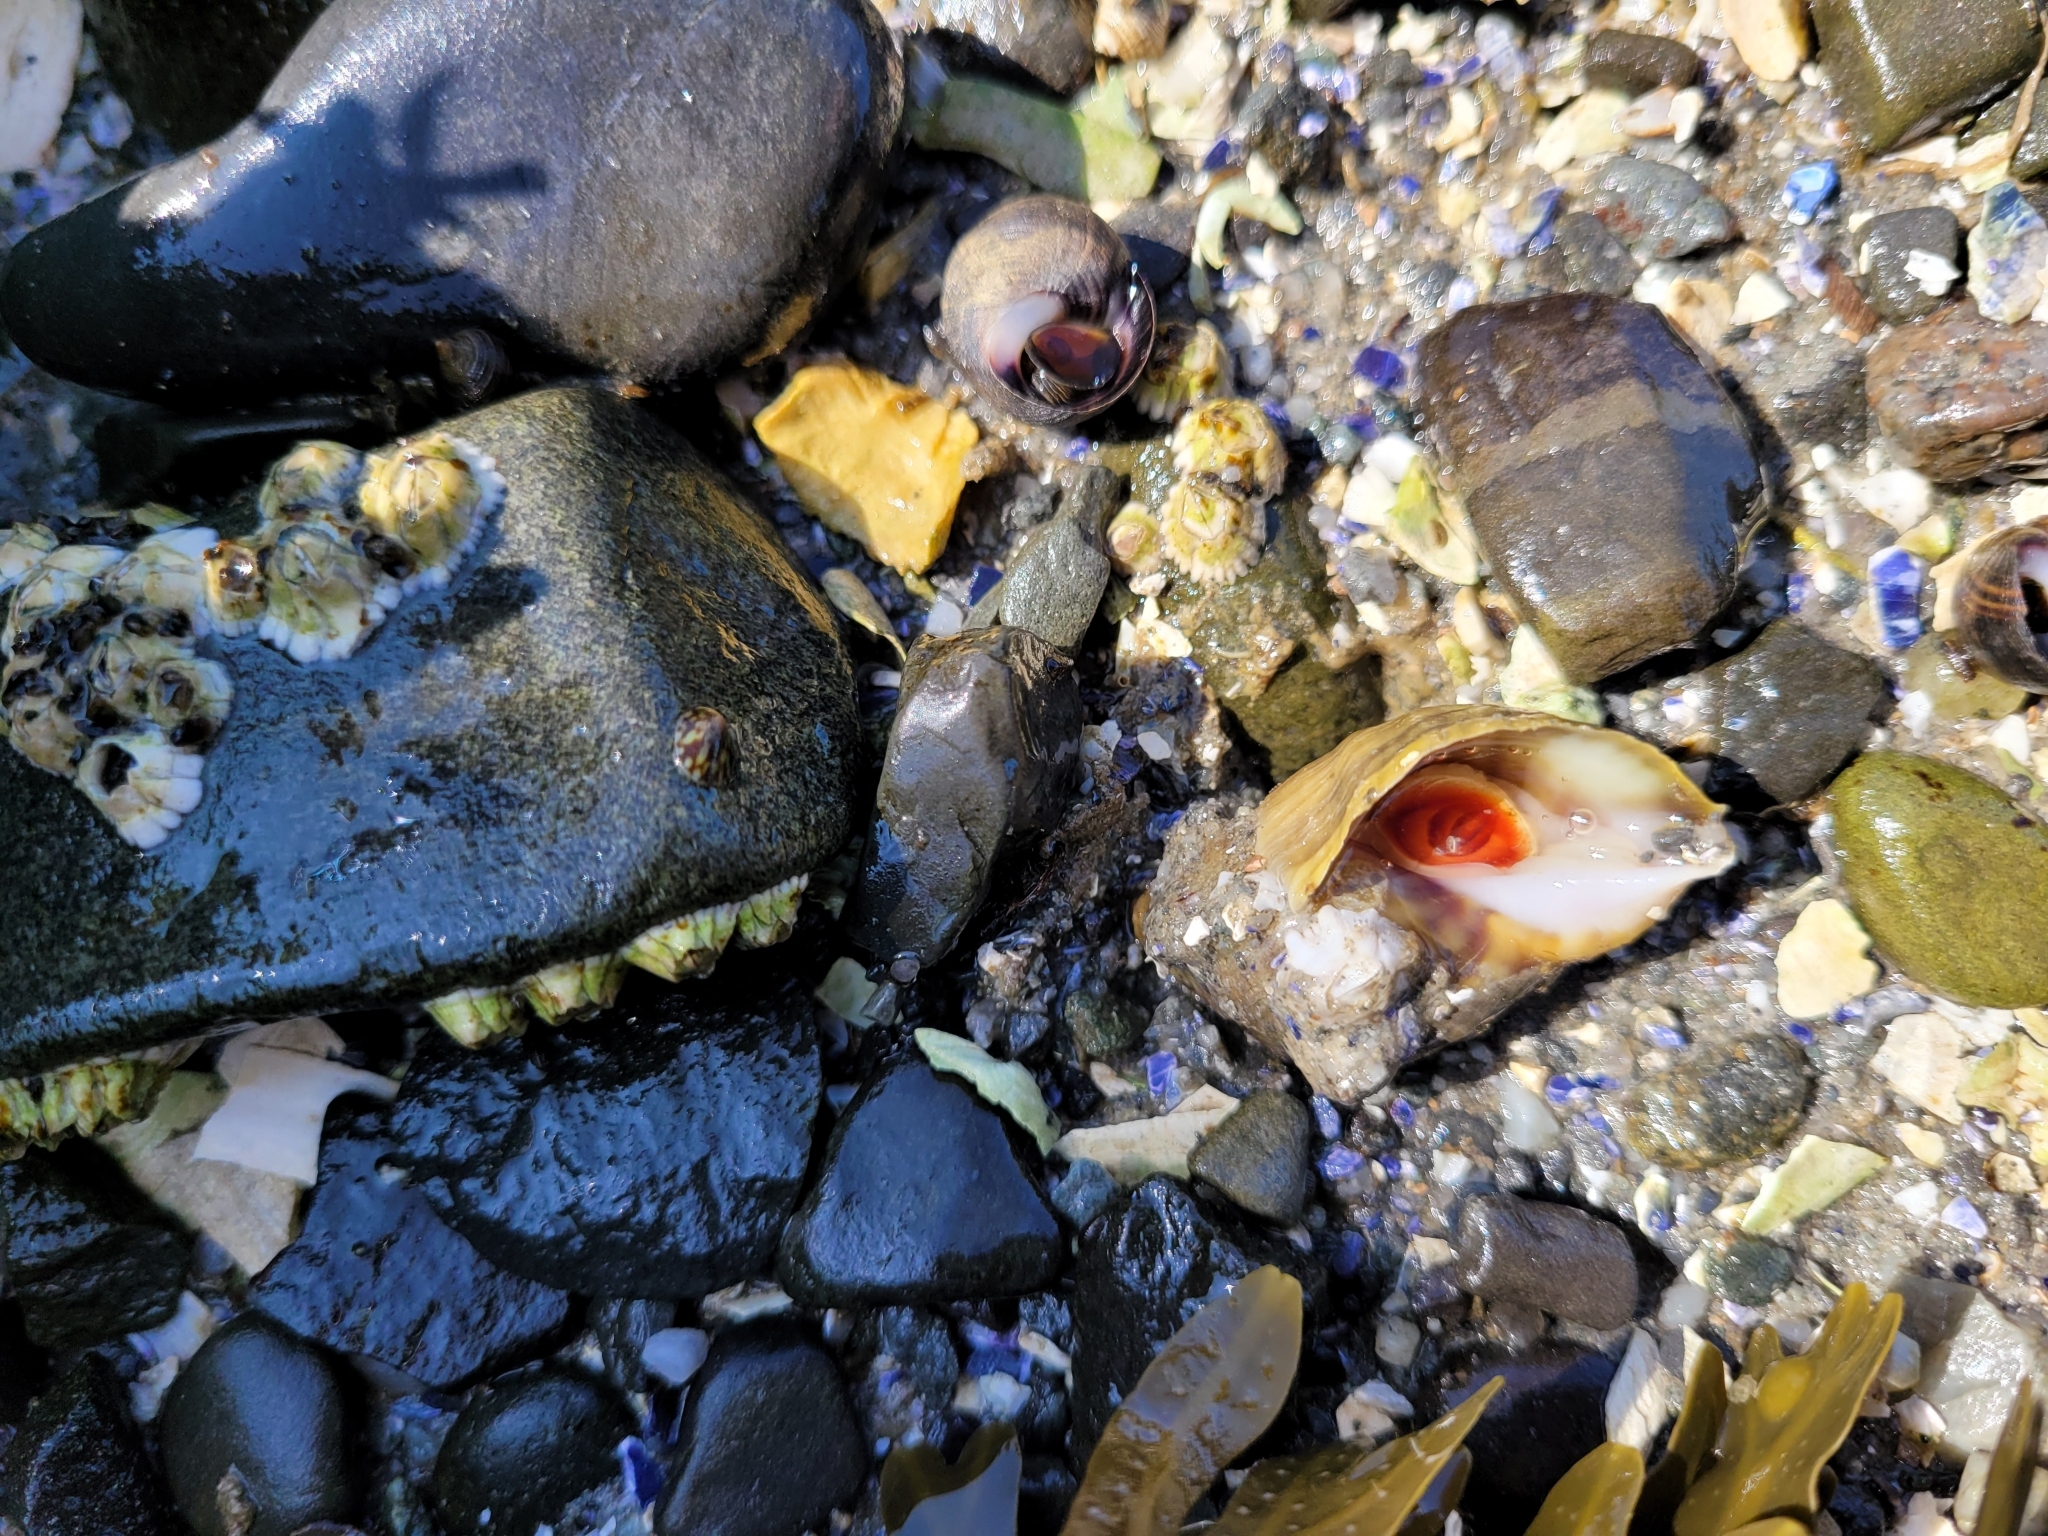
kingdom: Animalia
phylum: Mollusca
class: Gastropoda
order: Neogastropoda
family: Muricidae
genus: Nucella
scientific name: Nucella lapillus
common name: Dog whelk
